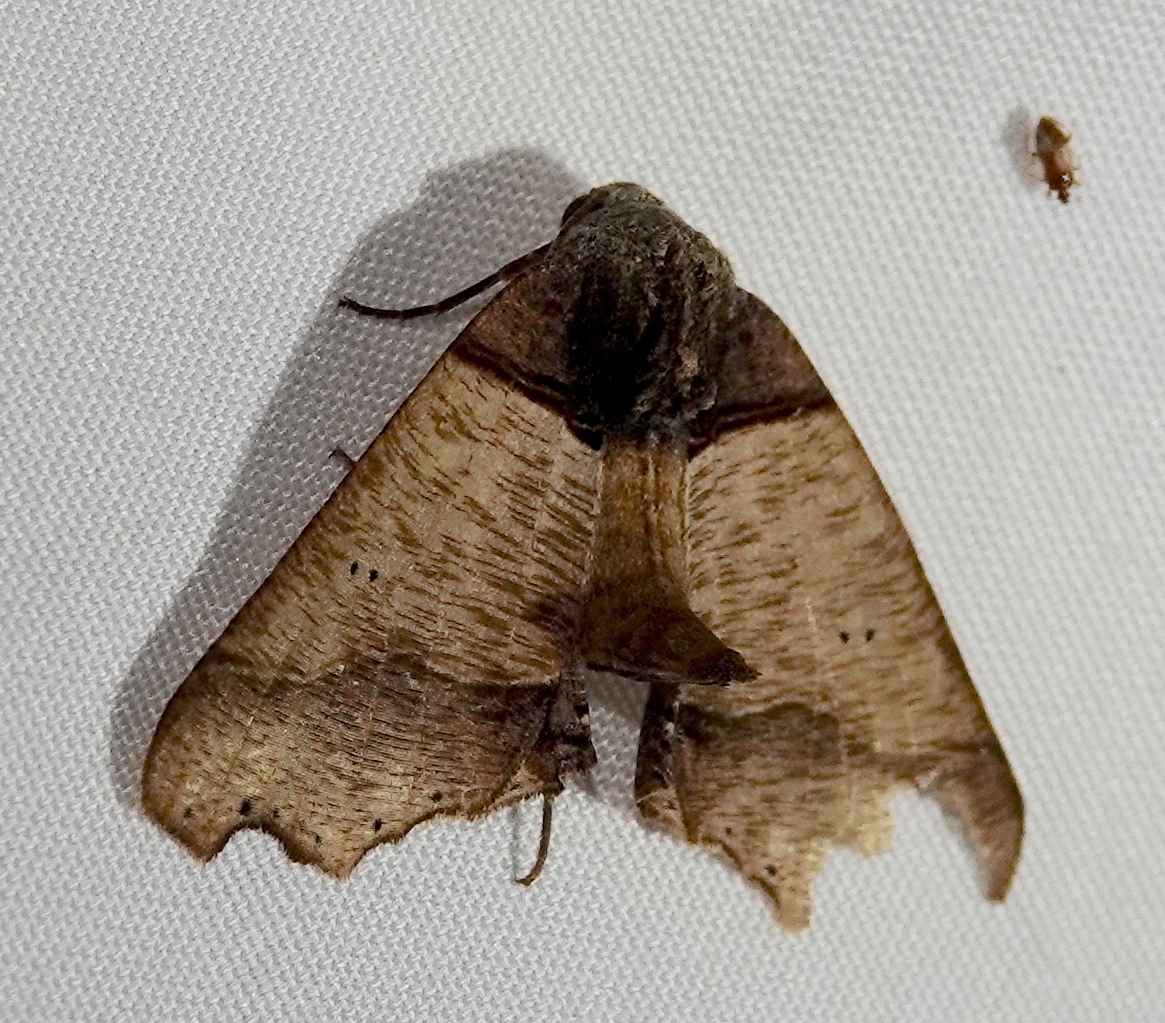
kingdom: Animalia
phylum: Arthropoda
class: Insecta
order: Lepidoptera
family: Geometridae
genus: Pero
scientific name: Pero polygonaria
